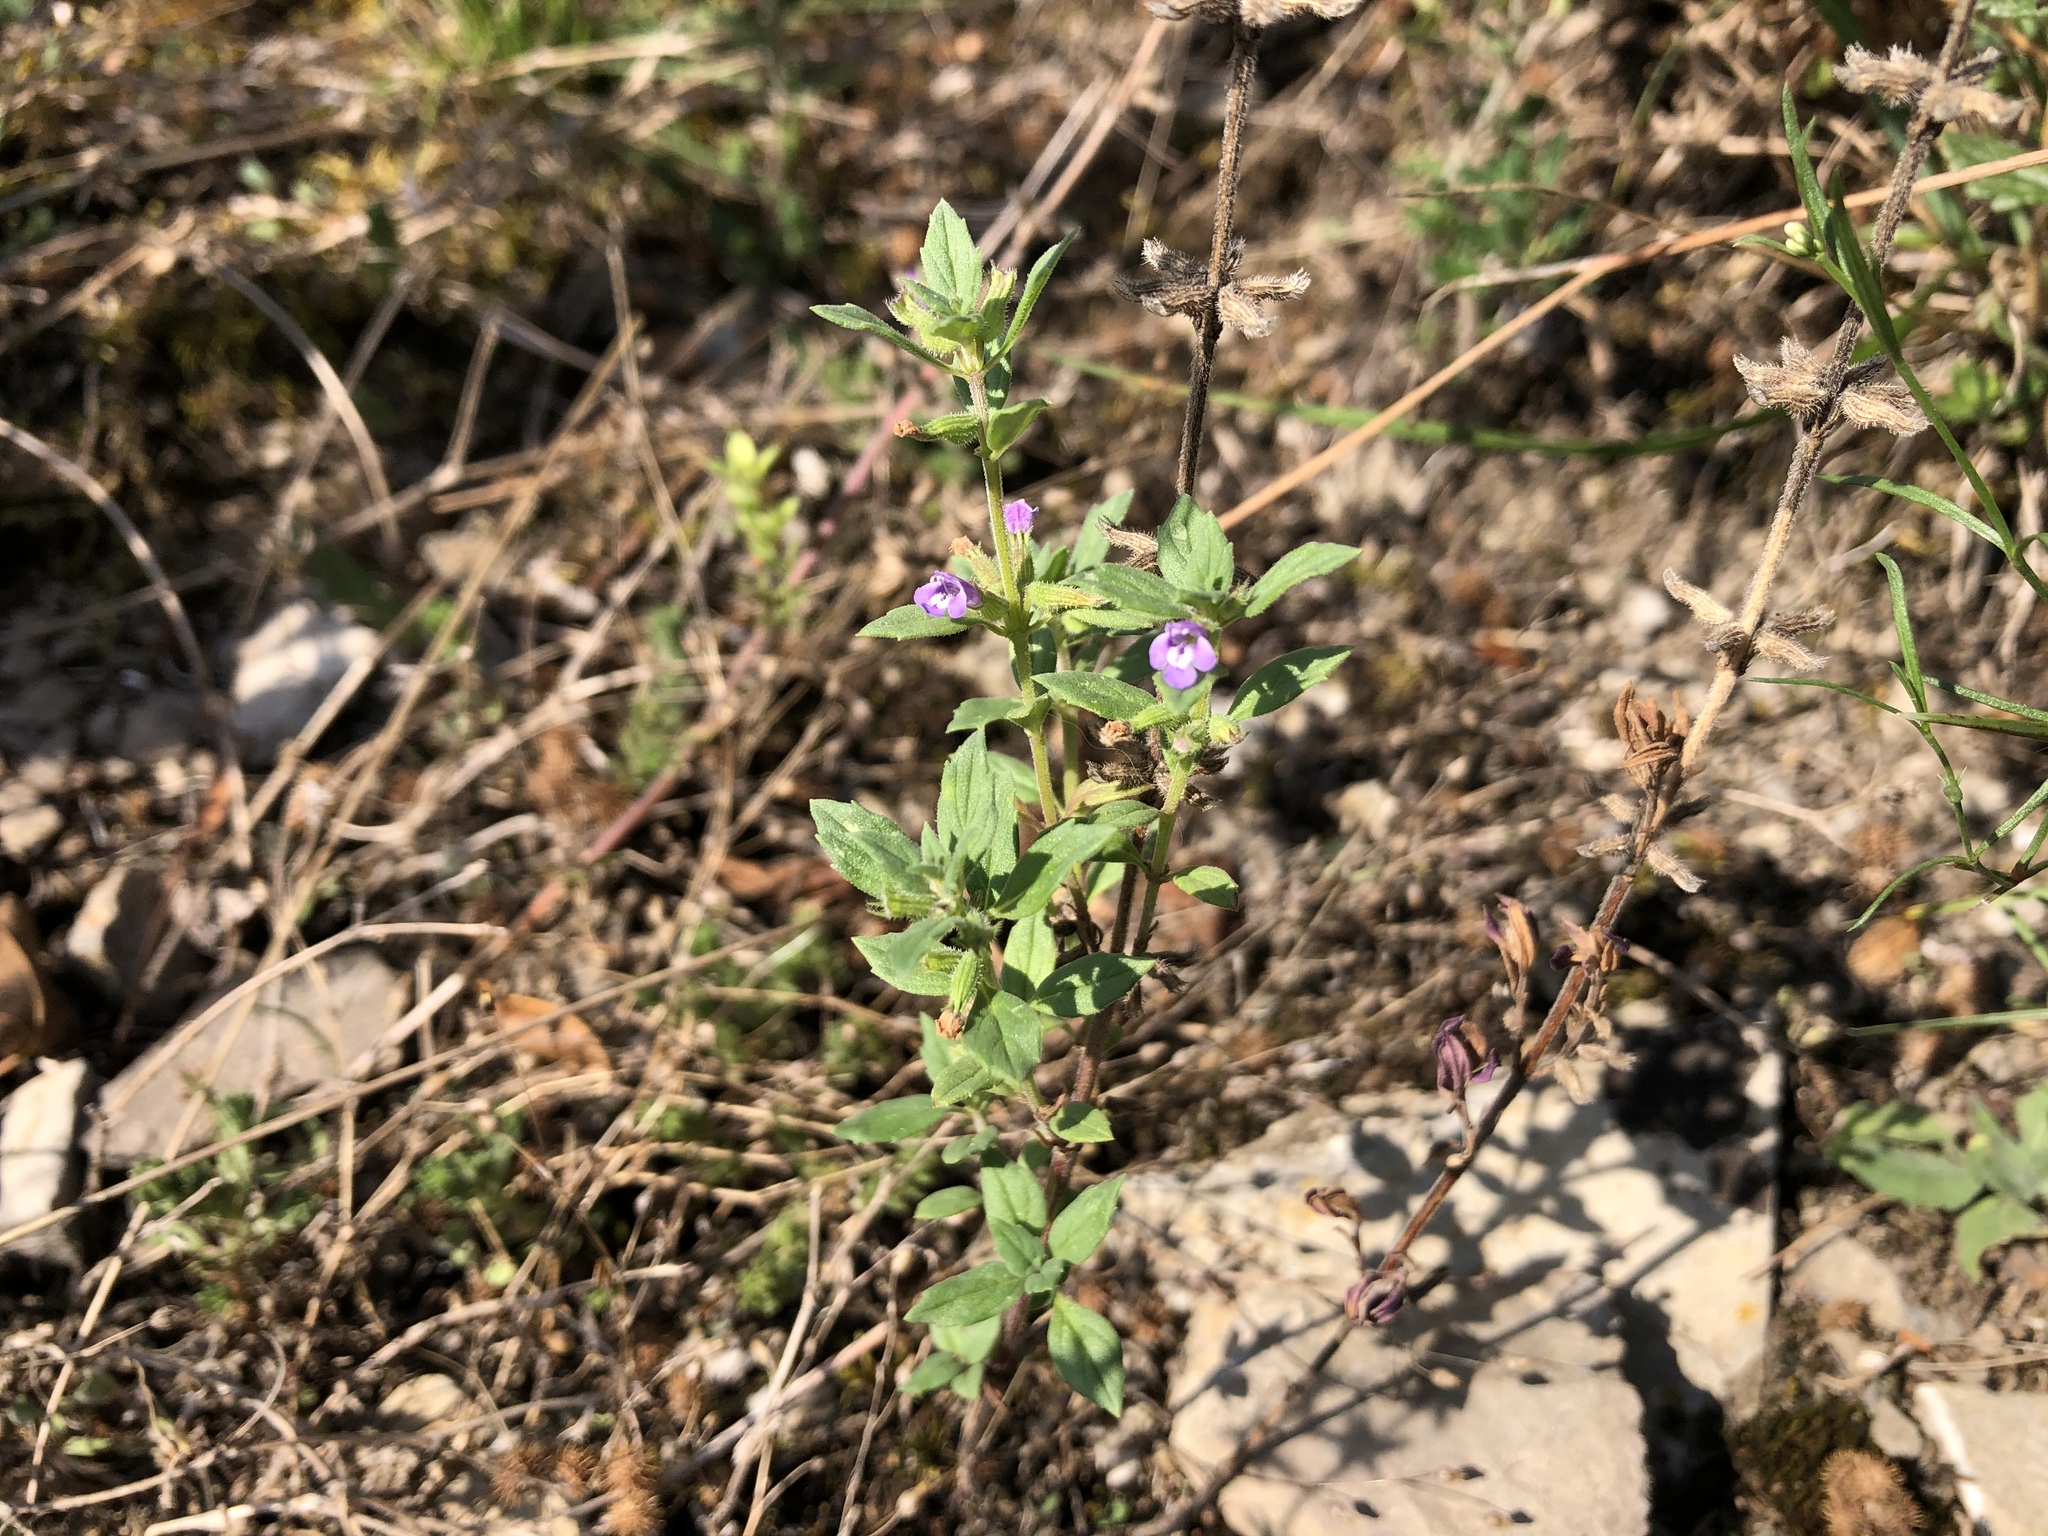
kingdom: Plantae
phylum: Tracheophyta
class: Magnoliopsida
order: Lamiales
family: Lamiaceae
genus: Clinopodium
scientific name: Clinopodium acinos
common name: Basil thyme
